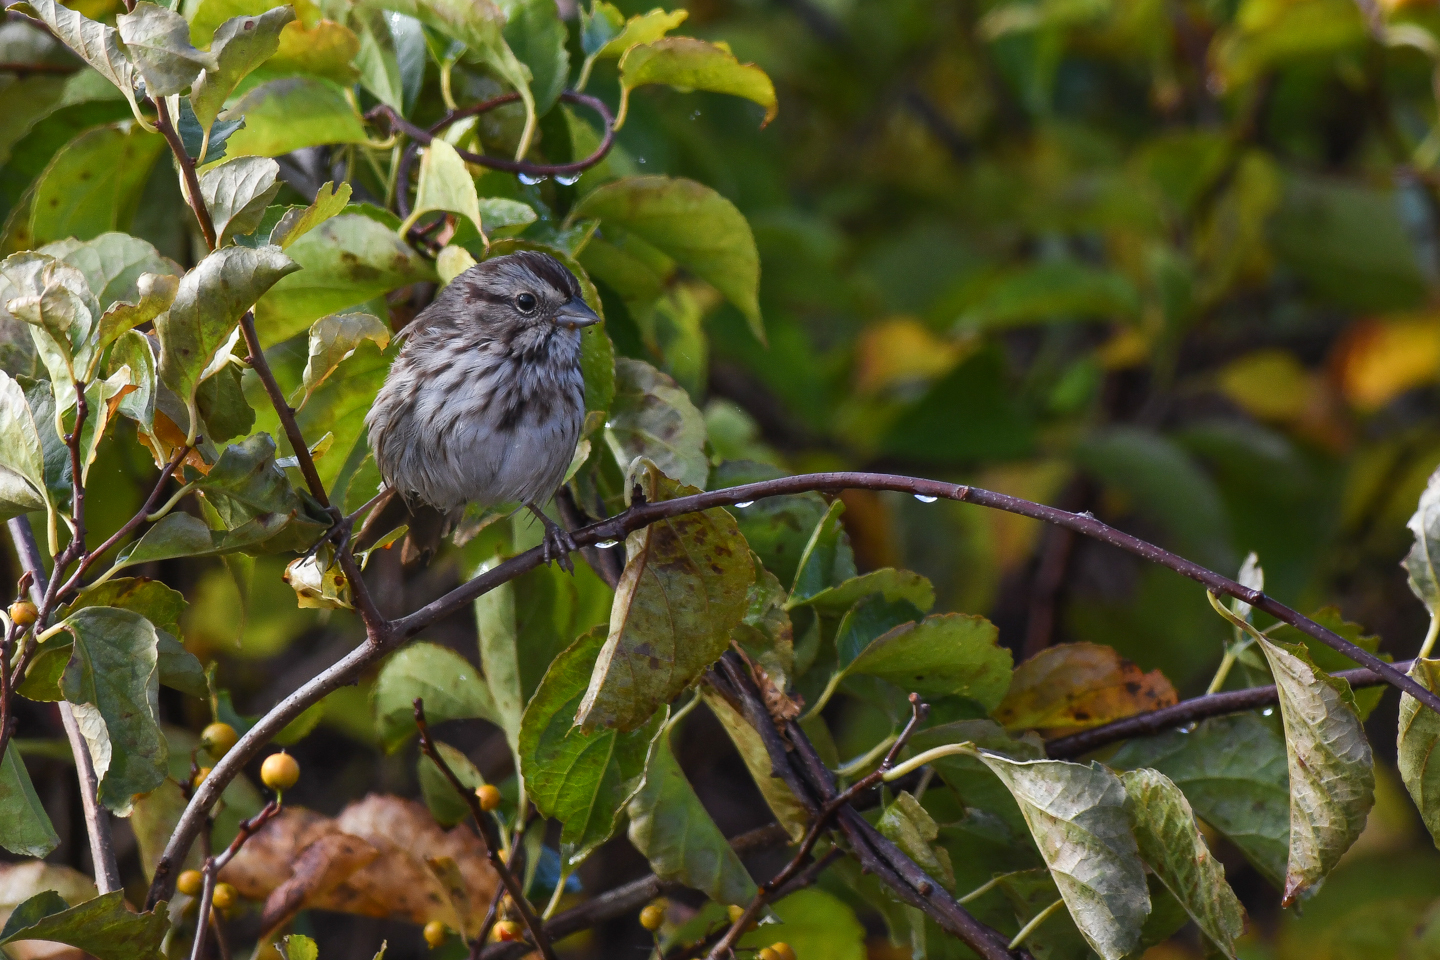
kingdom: Animalia
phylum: Chordata
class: Aves
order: Passeriformes
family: Passerellidae
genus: Melospiza
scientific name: Melospiza melodia
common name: Song sparrow
